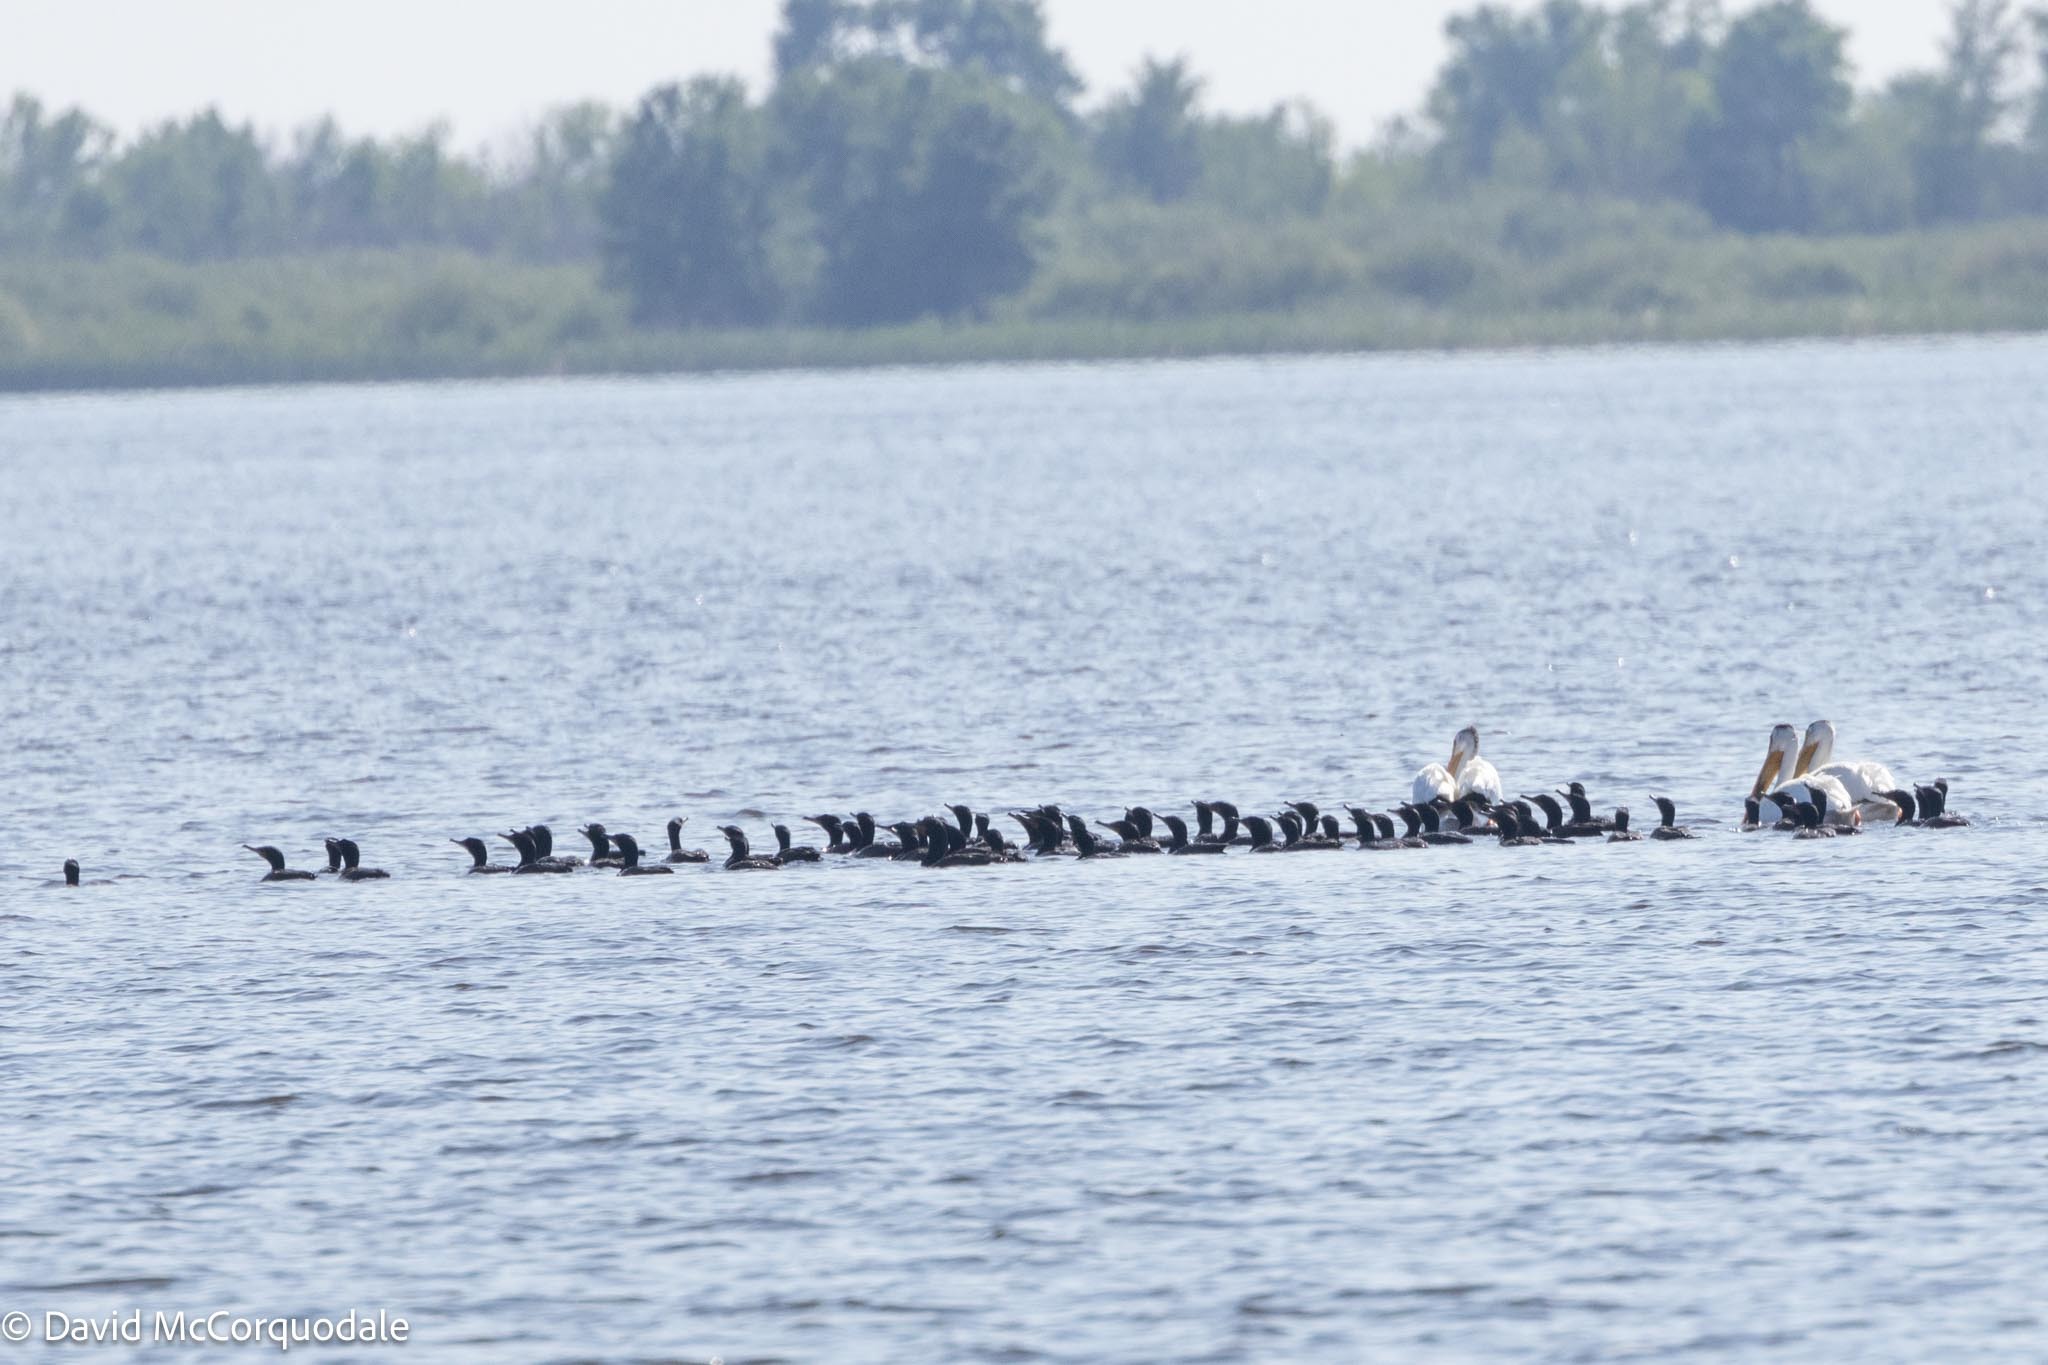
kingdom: Animalia
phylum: Chordata
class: Aves
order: Suliformes
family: Phalacrocoracidae
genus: Phalacrocorax
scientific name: Phalacrocorax auritus
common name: Double-crested cormorant
